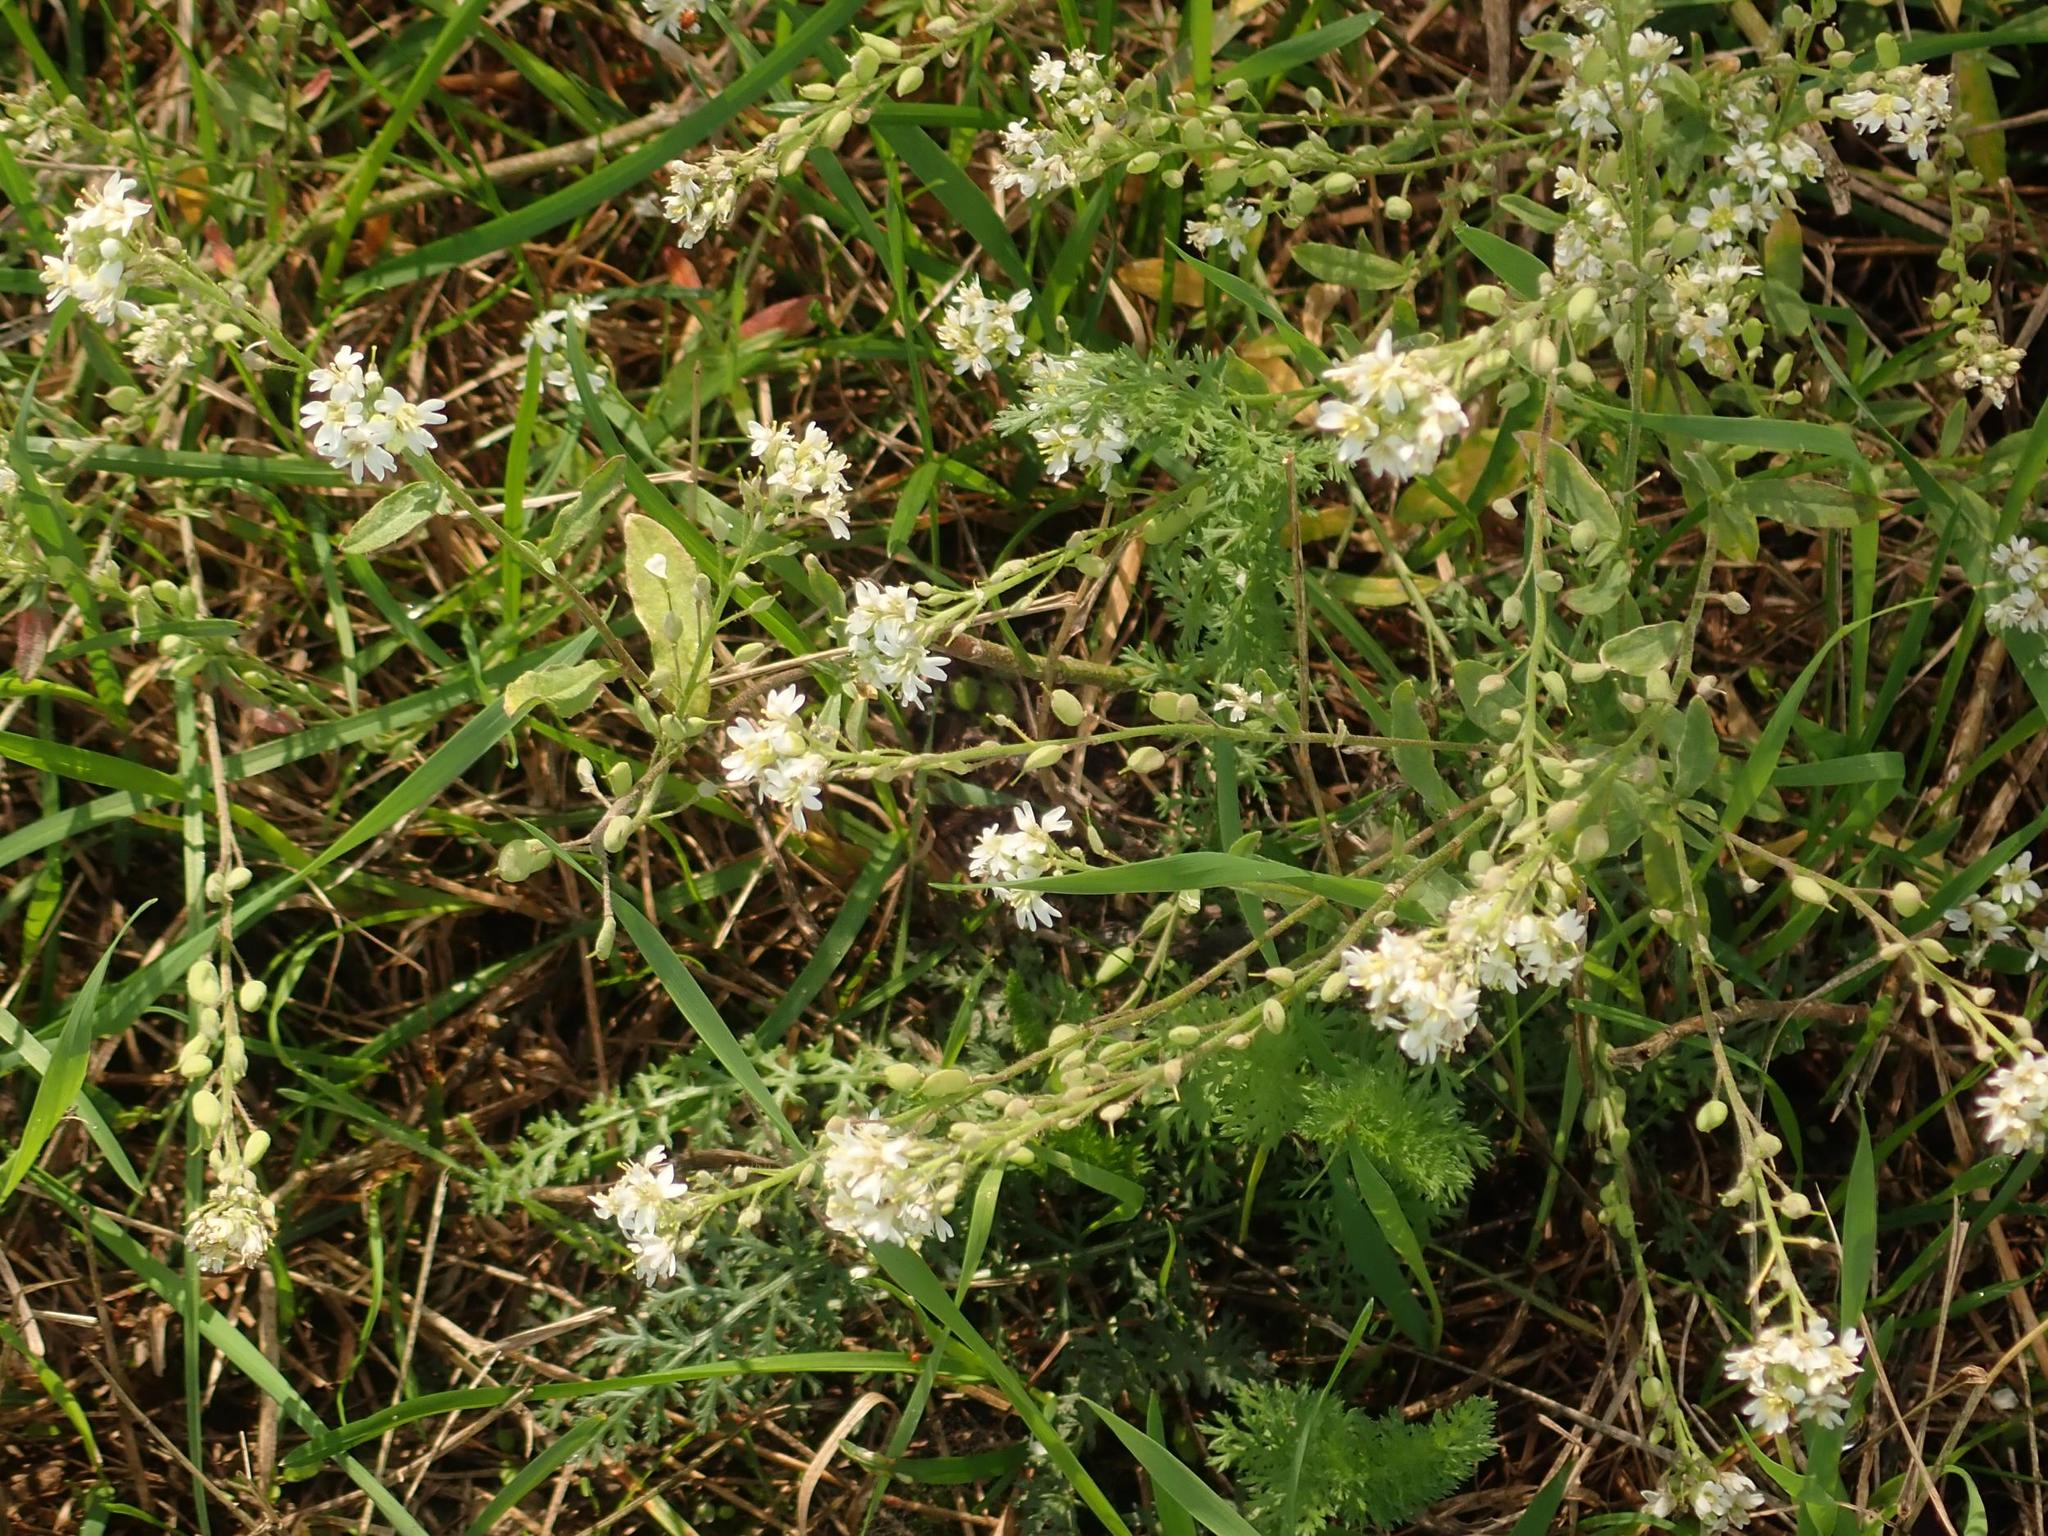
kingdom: Plantae
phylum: Tracheophyta
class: Magnoliopsida
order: Brassicales
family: Brassicaceae
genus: Berteroa
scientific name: Berteroa incana
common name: Hoary alison
